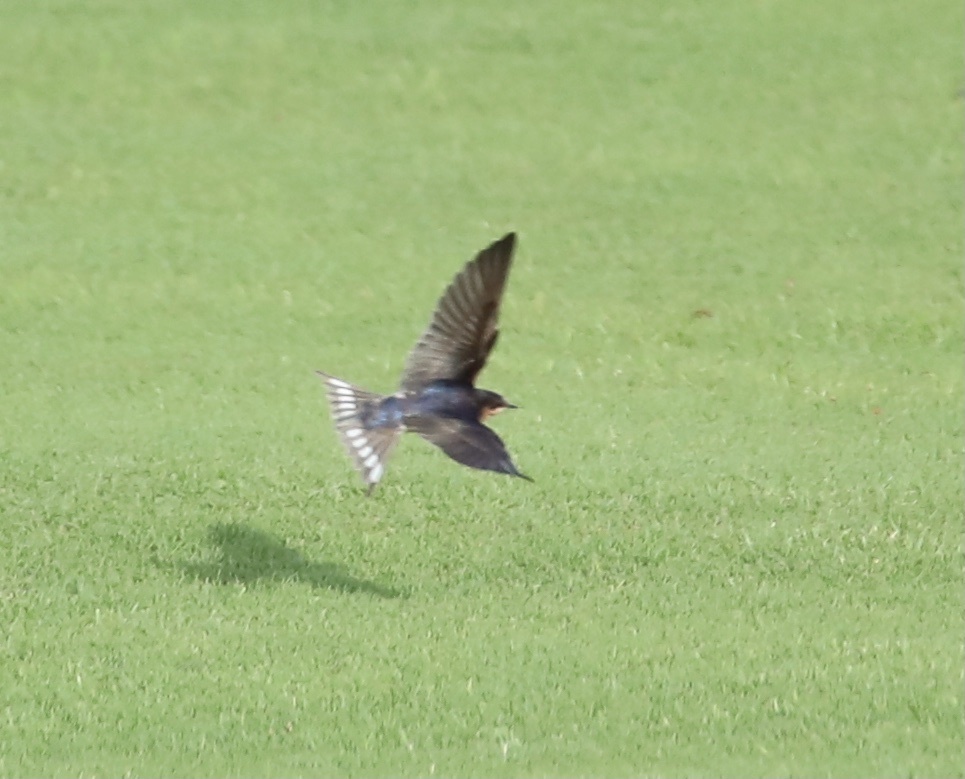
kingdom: Animalia
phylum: Chordata
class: Aves
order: Passeriformes
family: Hirundinidae
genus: Hirundo
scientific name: Hirundo rustica
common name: Barn swallow
